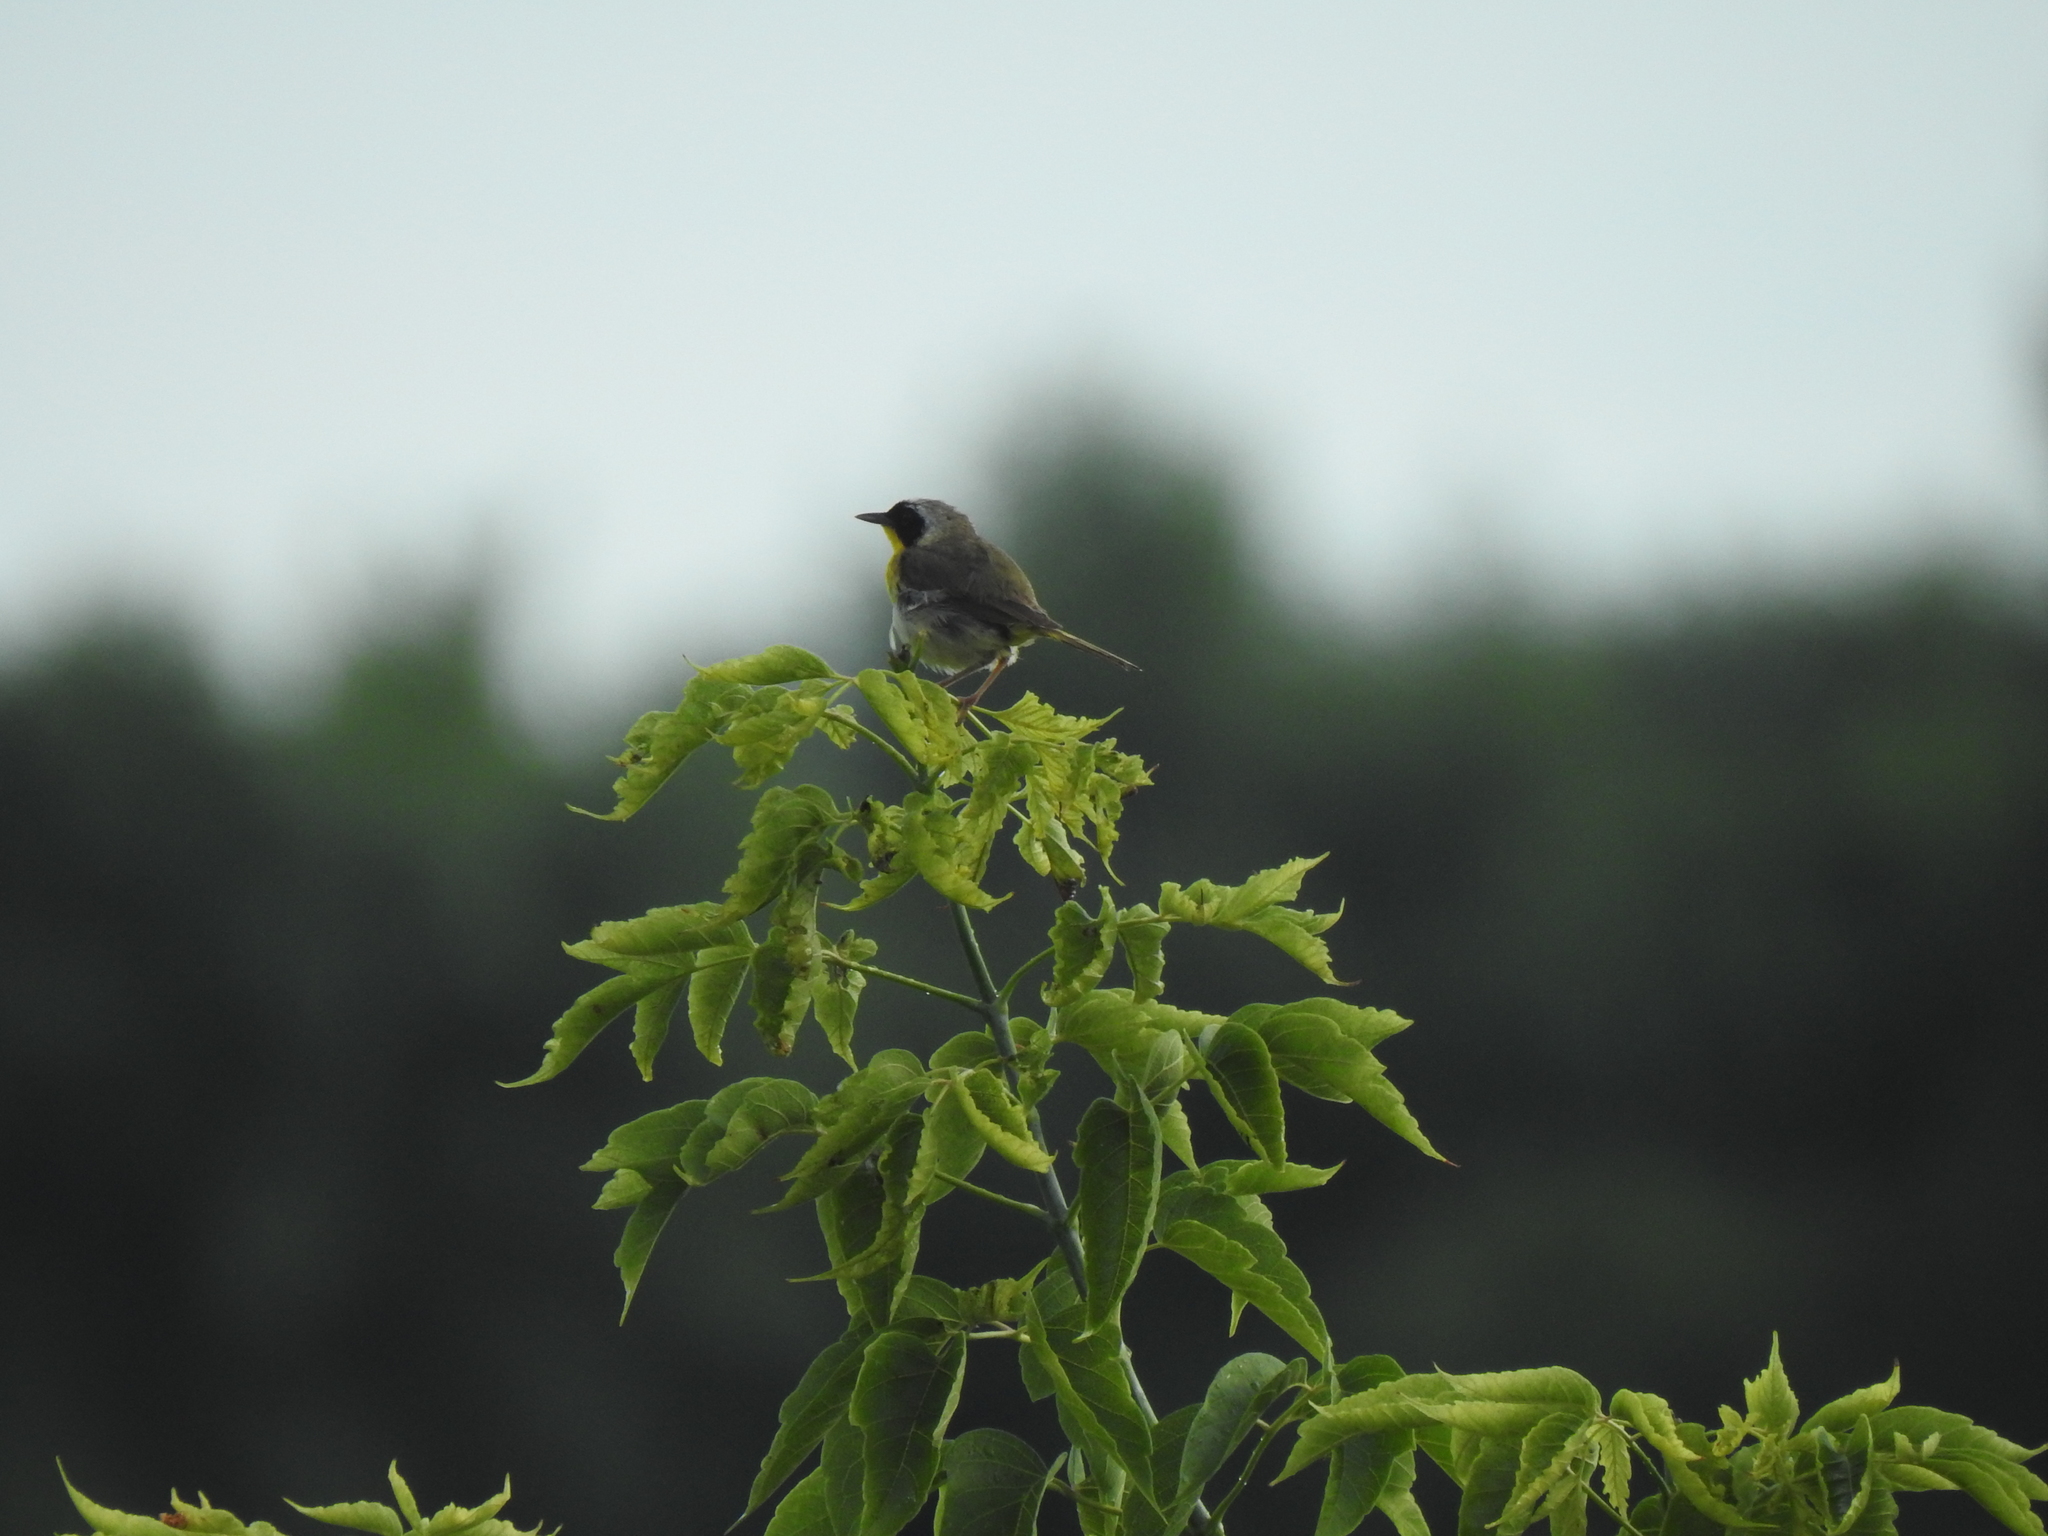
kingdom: Animalia
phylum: Chordata
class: Aves
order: Passeriformes
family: Parulidae
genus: Geothlypis
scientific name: Geothlypis trichas
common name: Common yellowthroat
